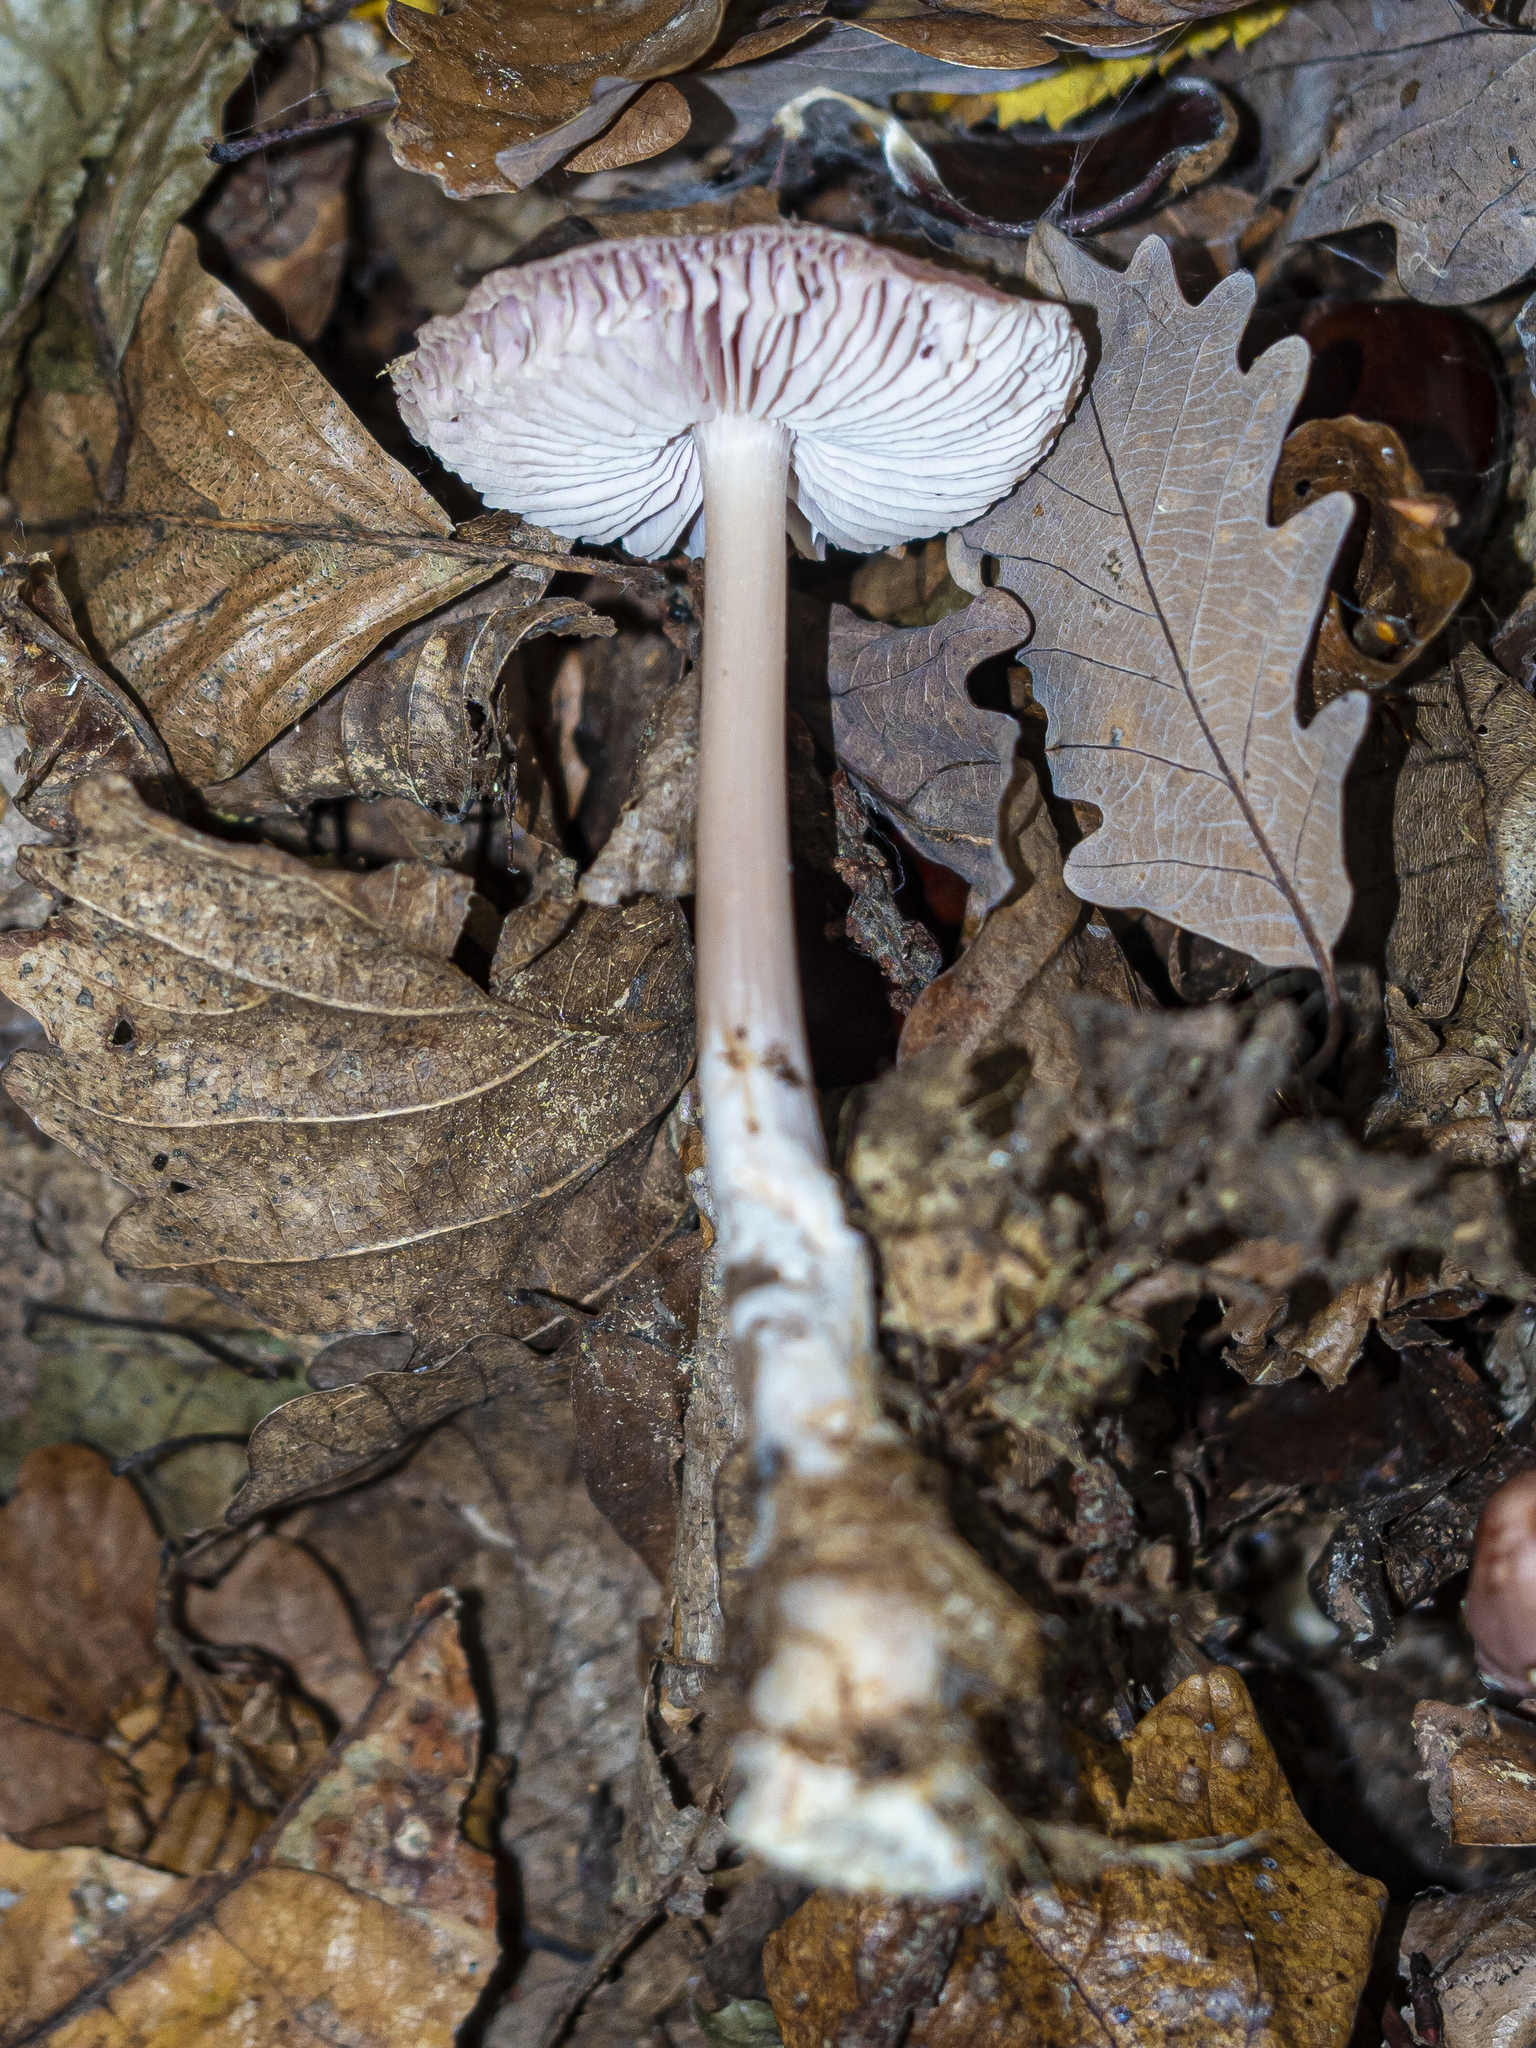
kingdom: Fungi
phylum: Basidiomycota
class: Agaricomycetes
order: Agaricales
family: Mycenaceae
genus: Mycena
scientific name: Mycena pura
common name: Lilac bonnet
